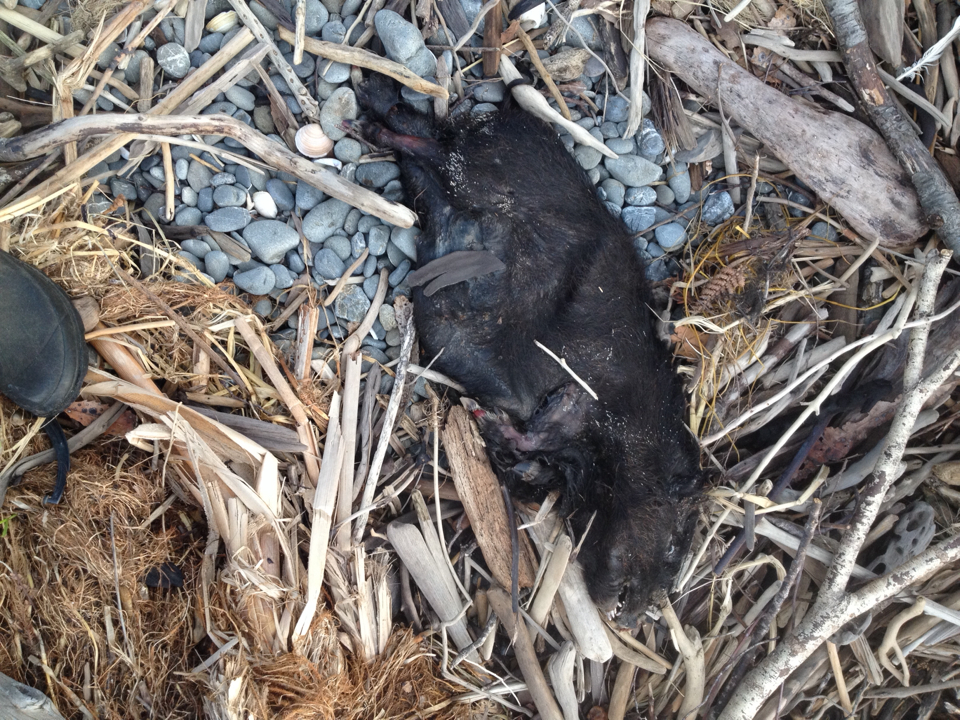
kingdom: Animalia
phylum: Chordata
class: Mammalia
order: Artiodactyla
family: Suidae
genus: Sus
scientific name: Sus scrofa
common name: Wild boar
